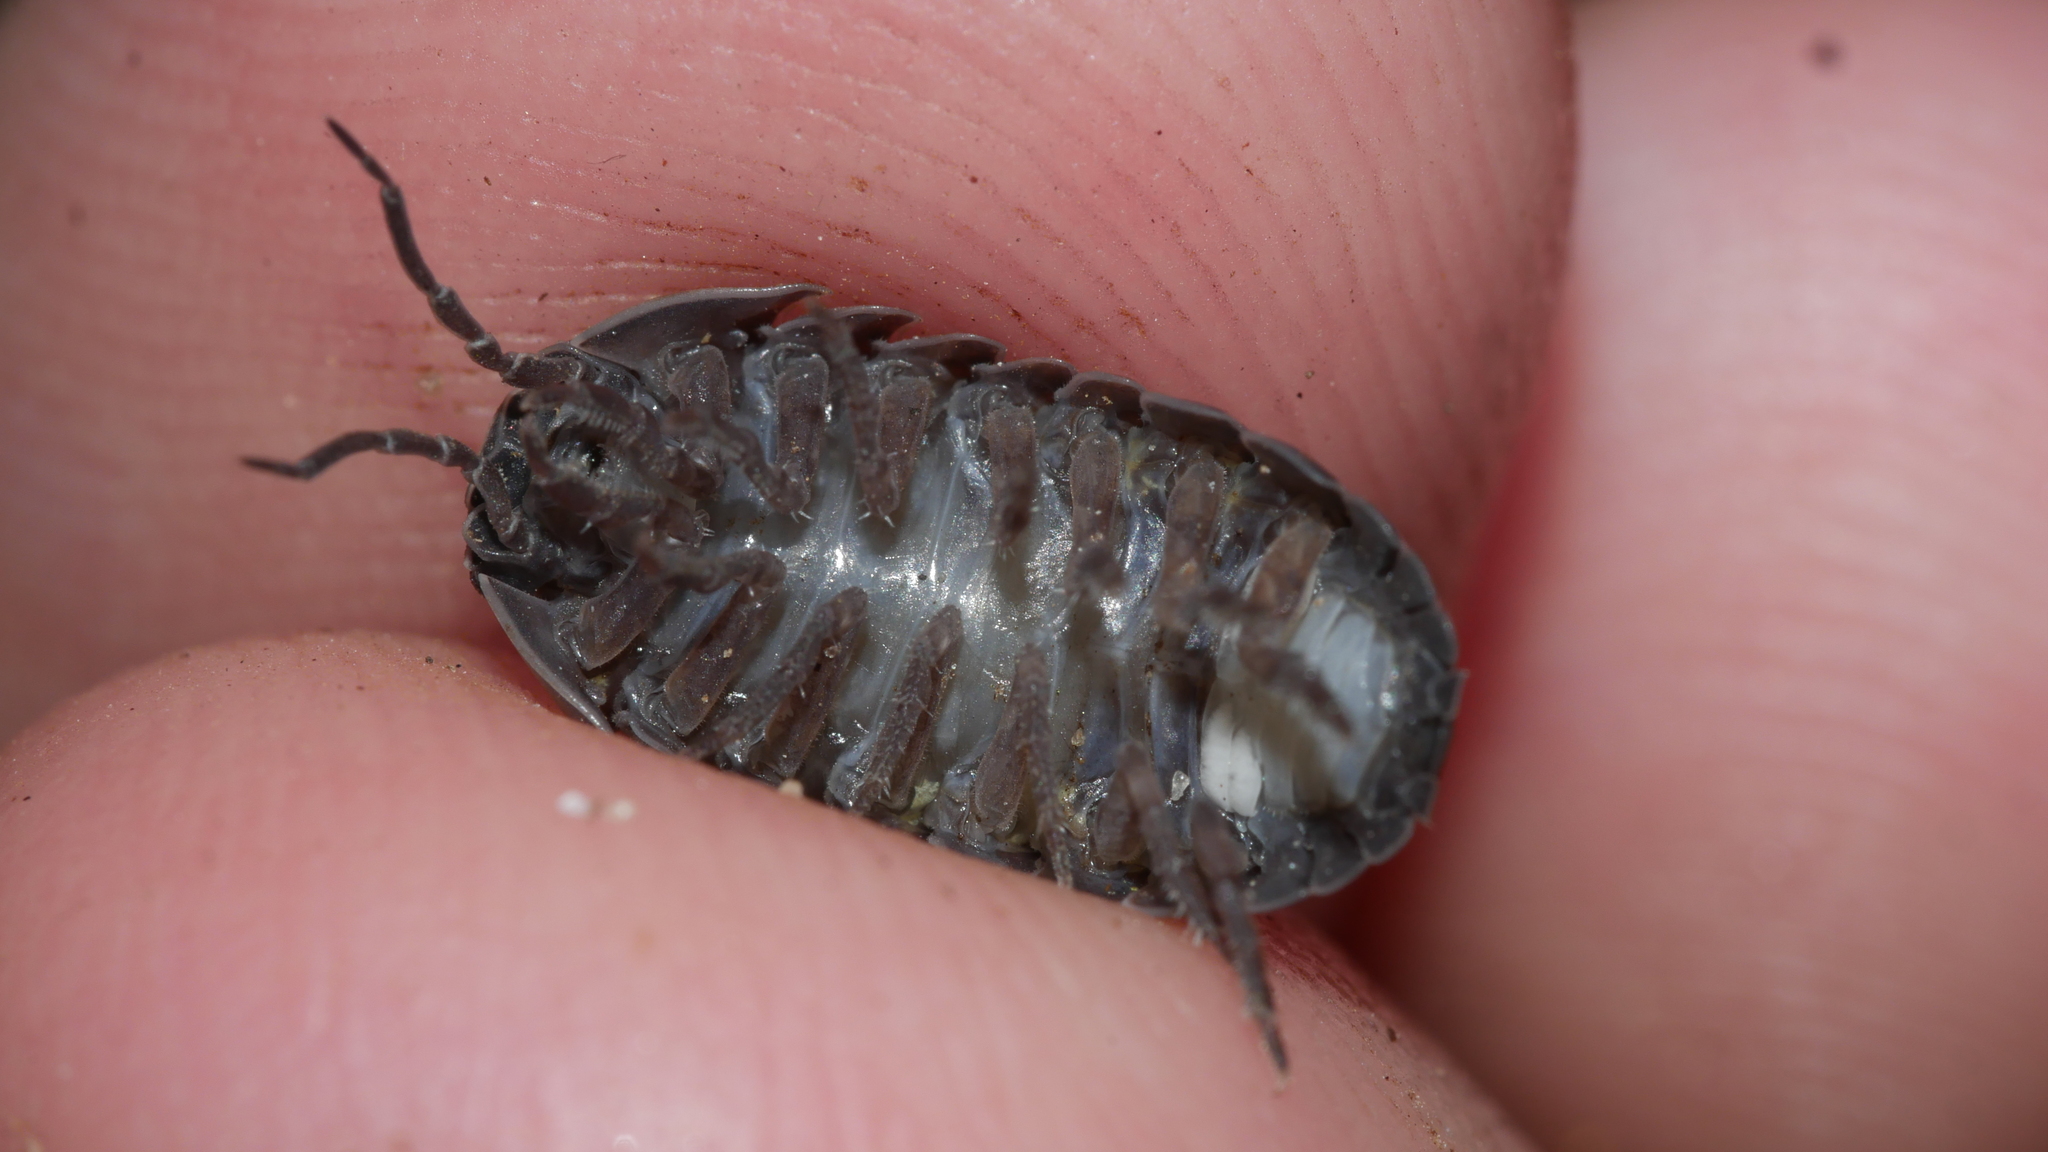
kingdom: Animalia
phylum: Arthropoda
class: Malacostraca
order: Isopoda
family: Armadillidiidae
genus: Armadillidium
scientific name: Armadillidium vulgare
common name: Common pill woodlouse
